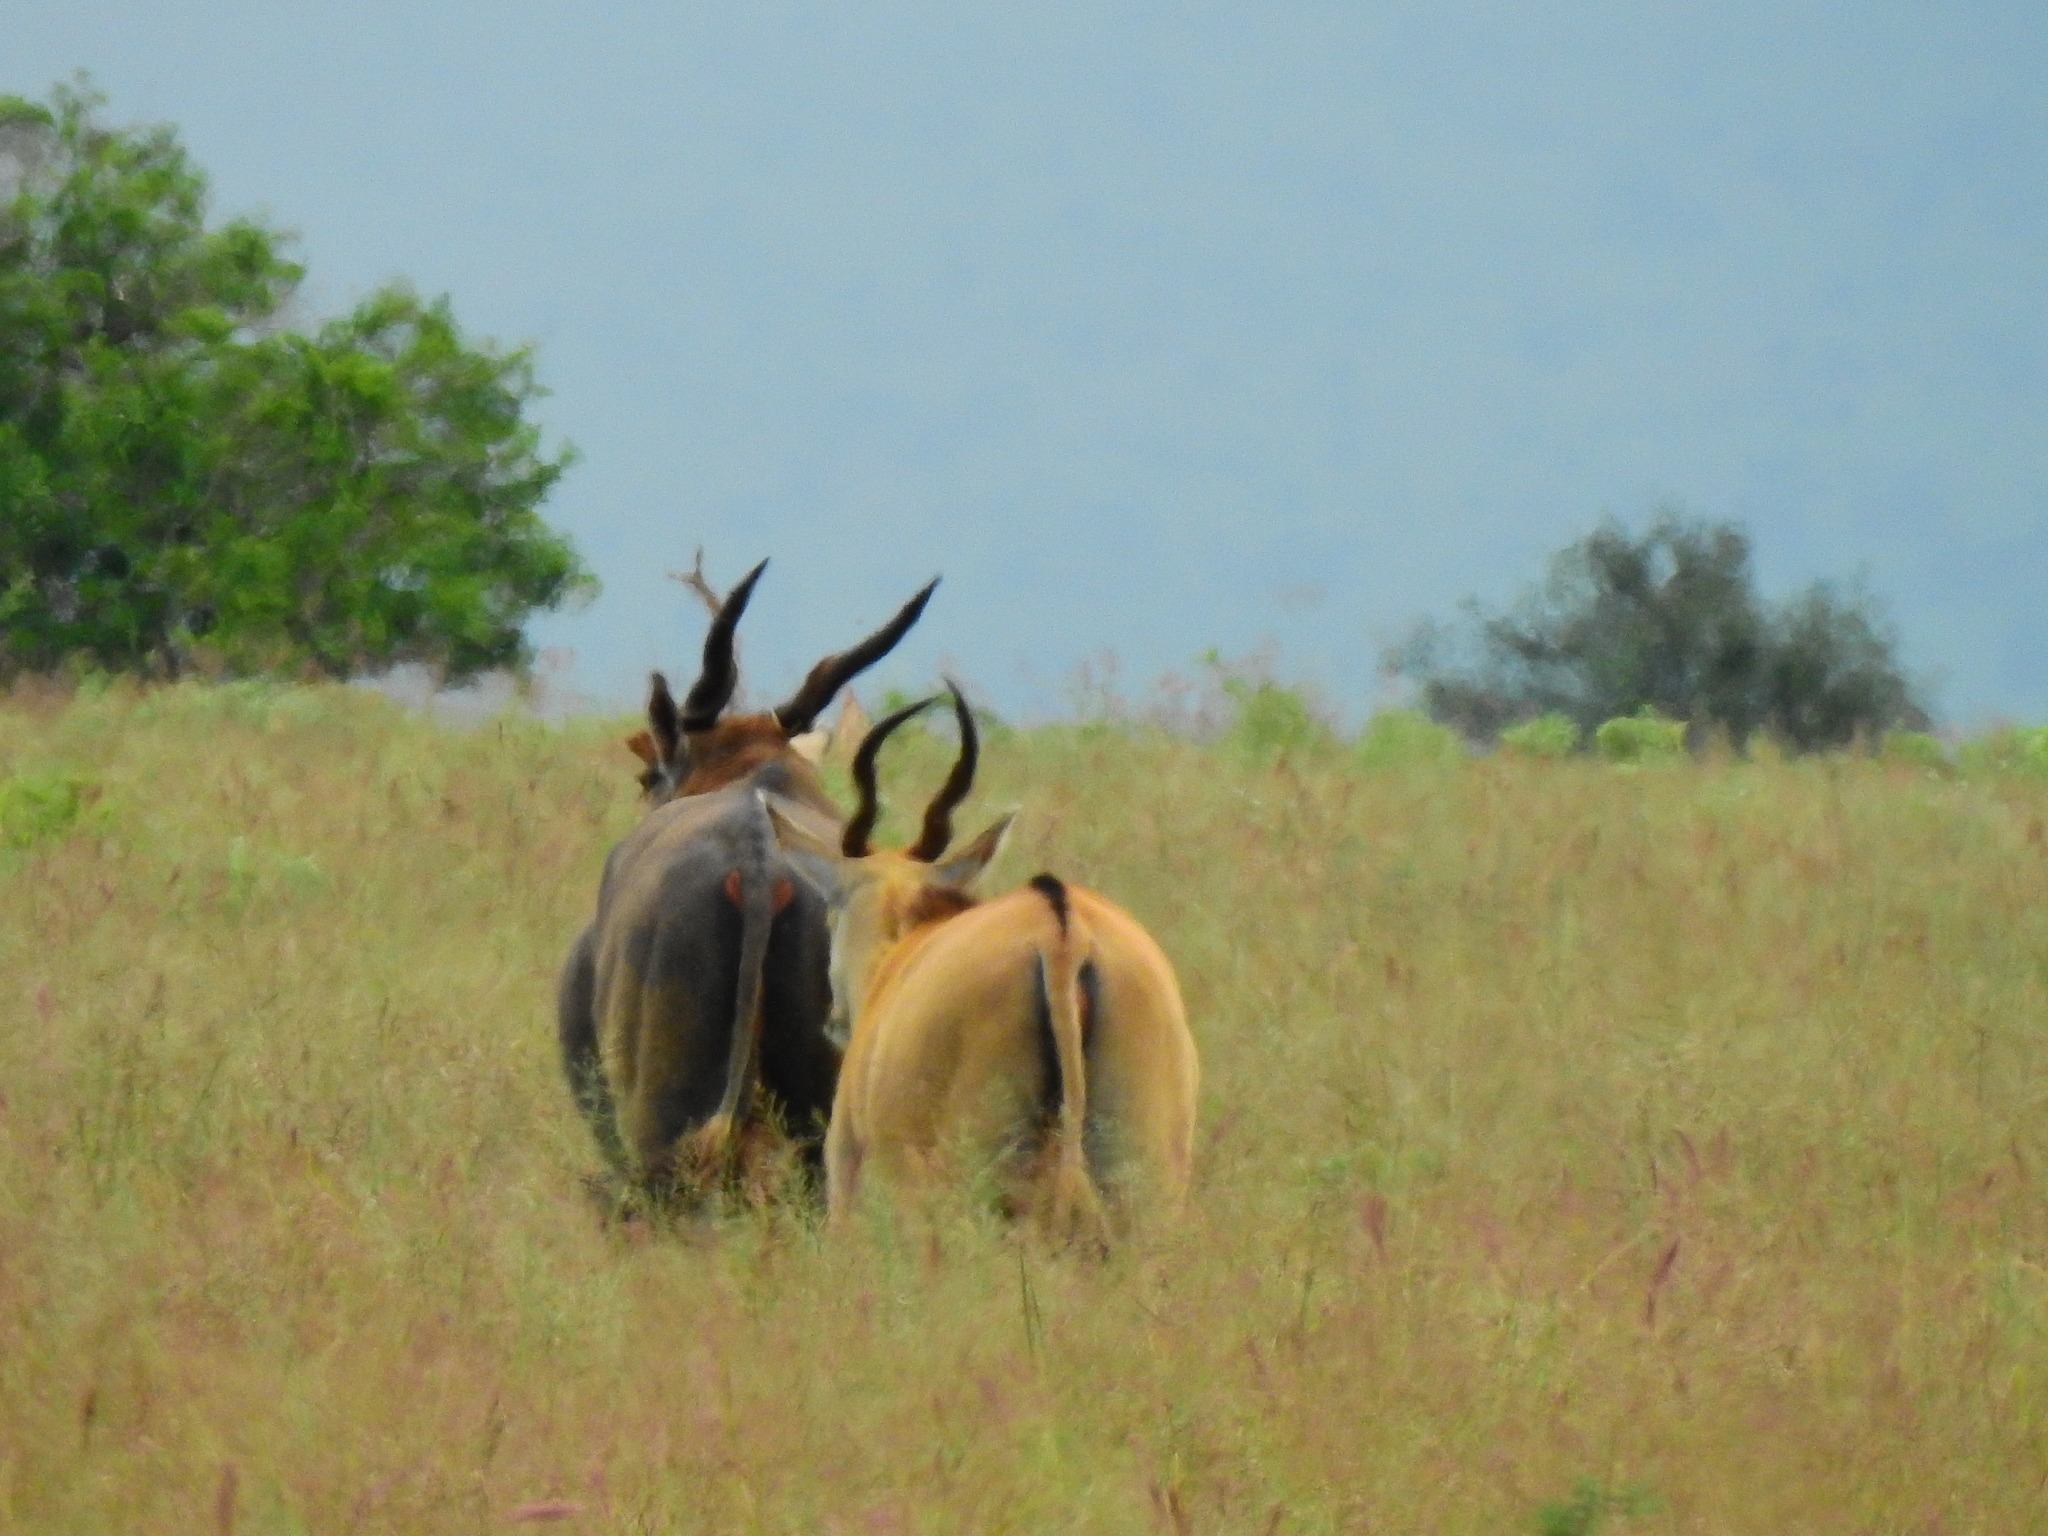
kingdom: Animalia
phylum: Chordata
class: Mammalia
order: Artiodactyla
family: Bovidae
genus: Taurotragus
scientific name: Taurotragus oryx
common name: Common eland
